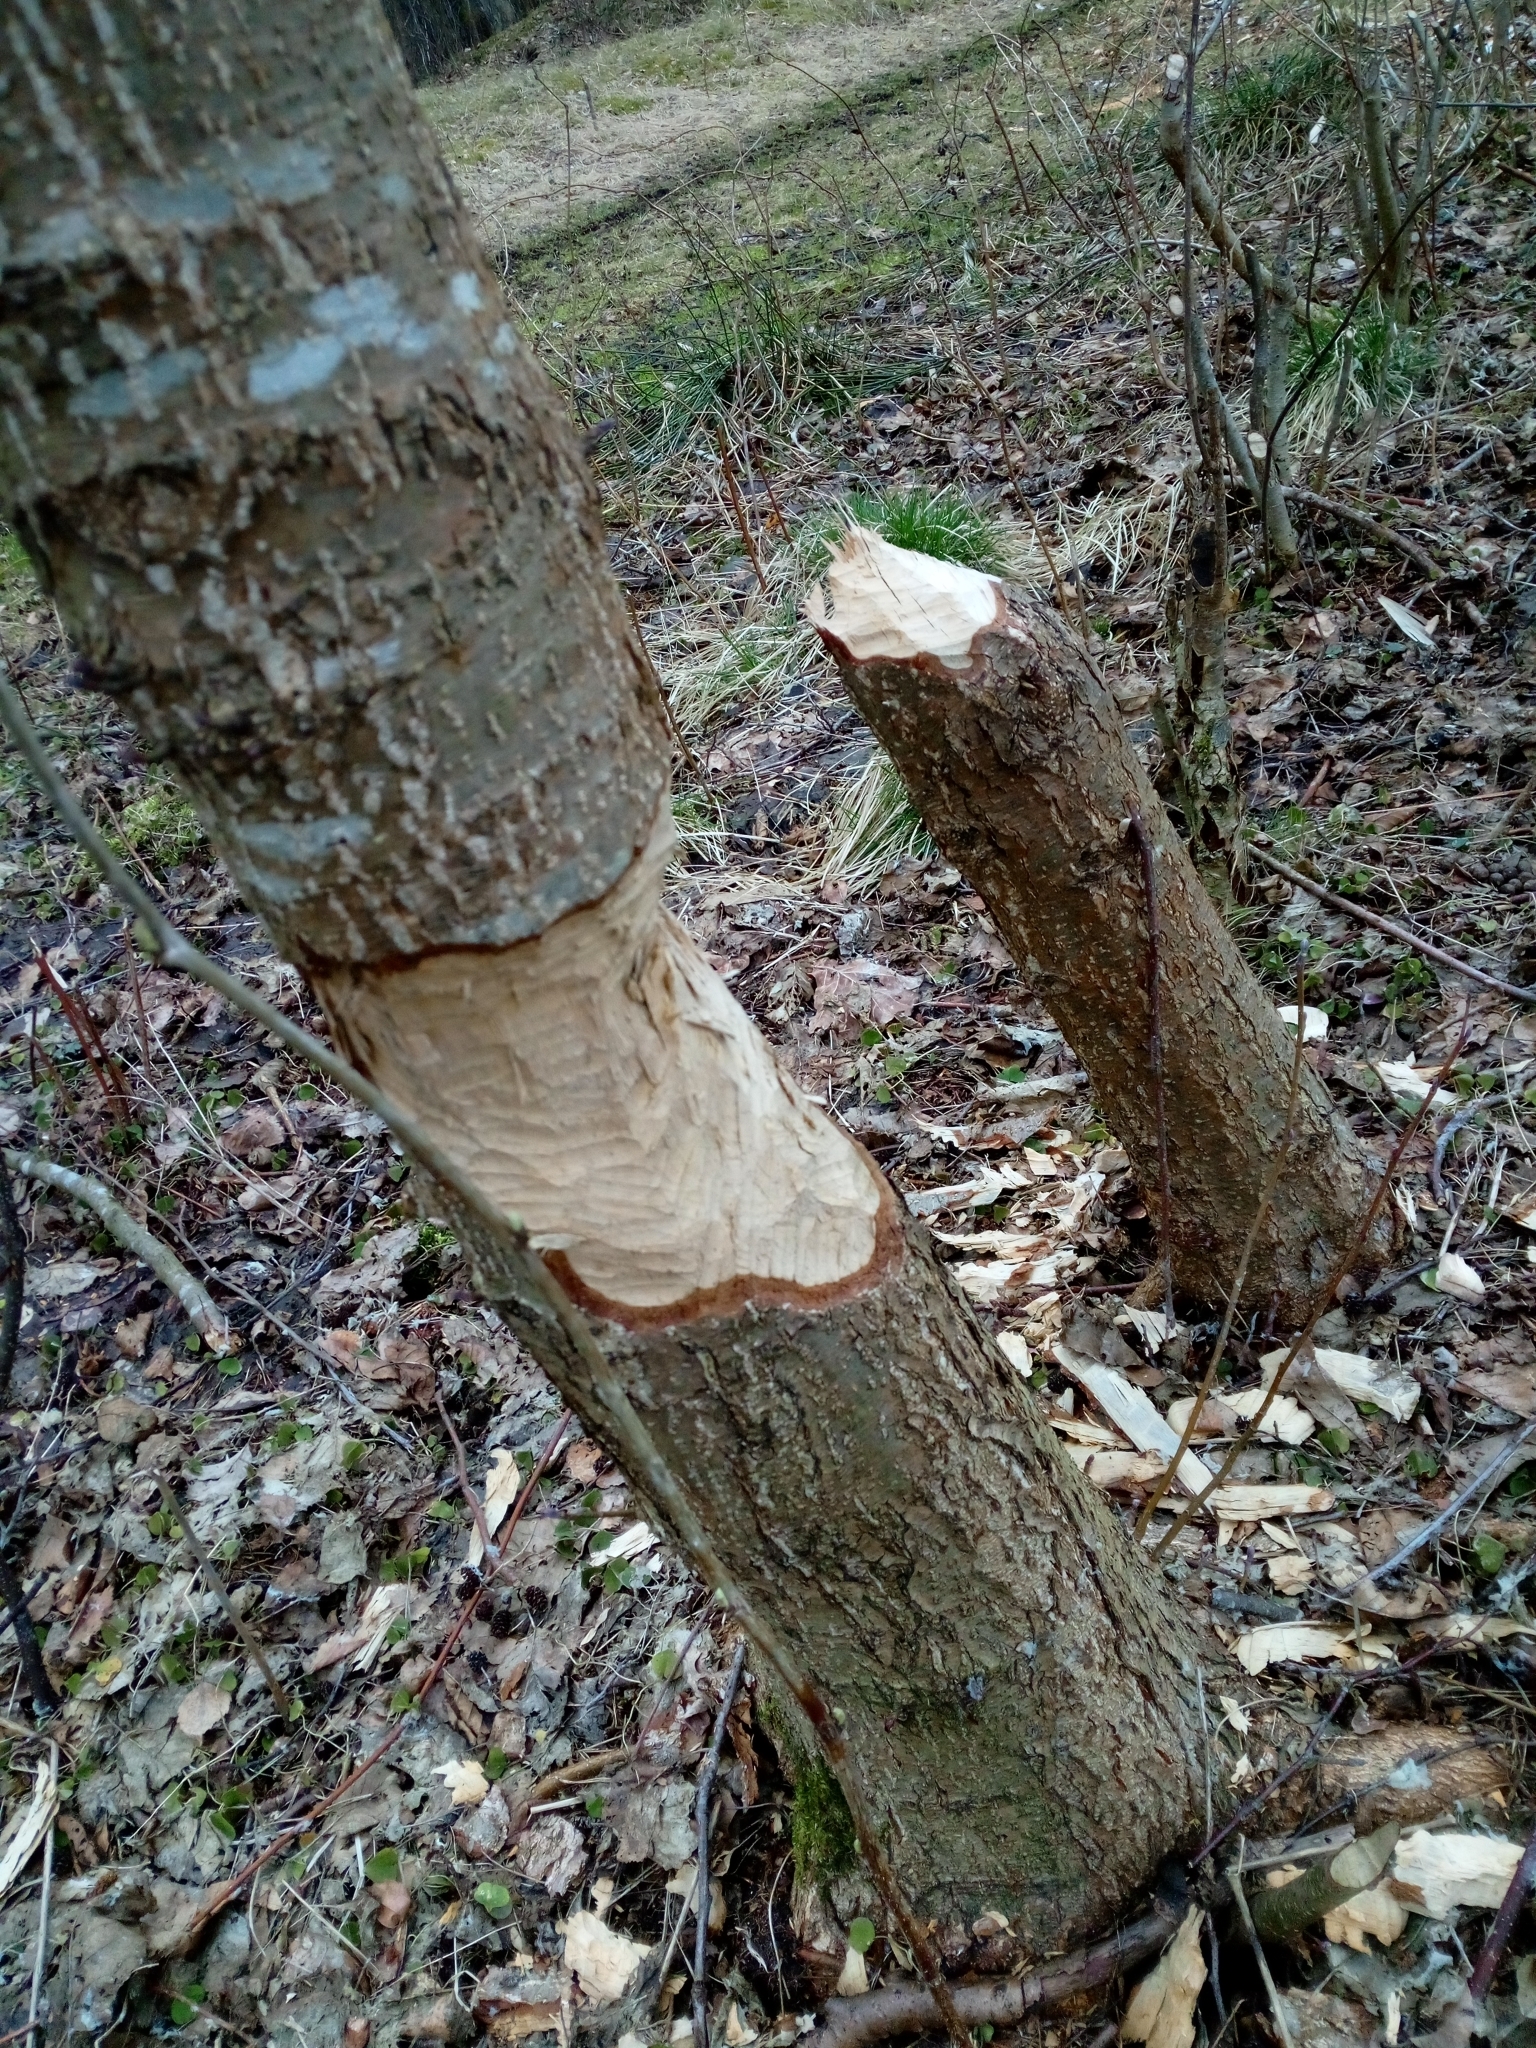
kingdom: Animalia
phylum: Chordata
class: Mammalia
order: Rodentia
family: Castoridae
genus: Castor
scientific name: Castor fiber
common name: Eurasian beaver
